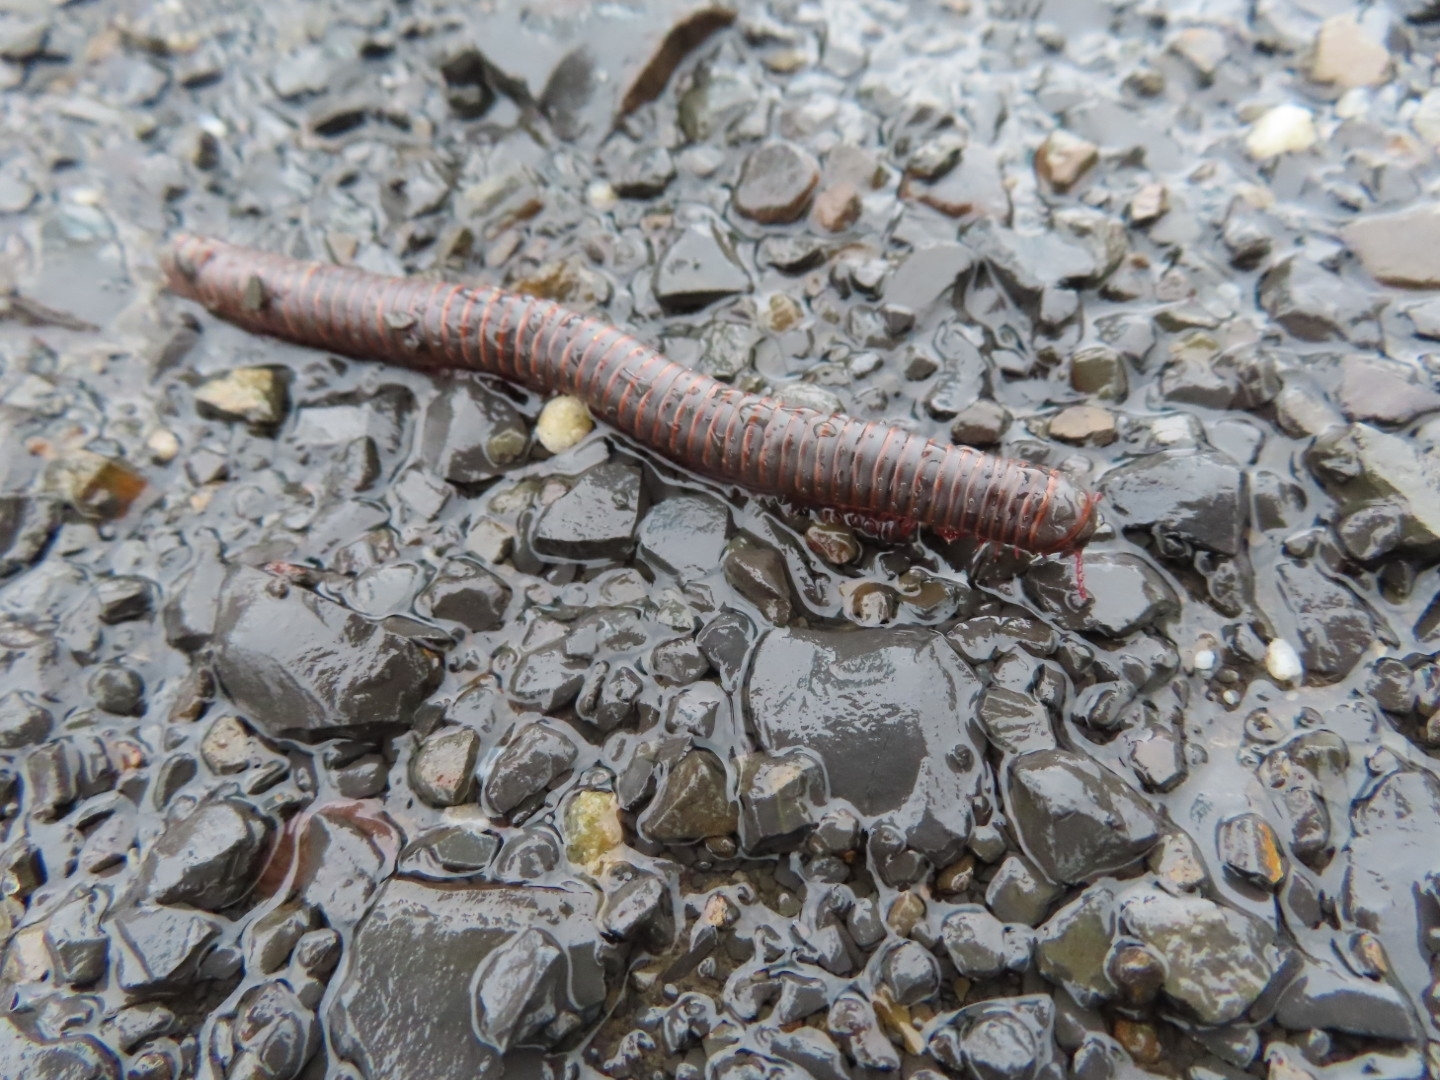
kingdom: Animalia
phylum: Arthropoda
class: Diplopoda
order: Spirobolida
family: Spirobolidae
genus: Narceus
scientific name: Narceus americanus
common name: American giant millipede
